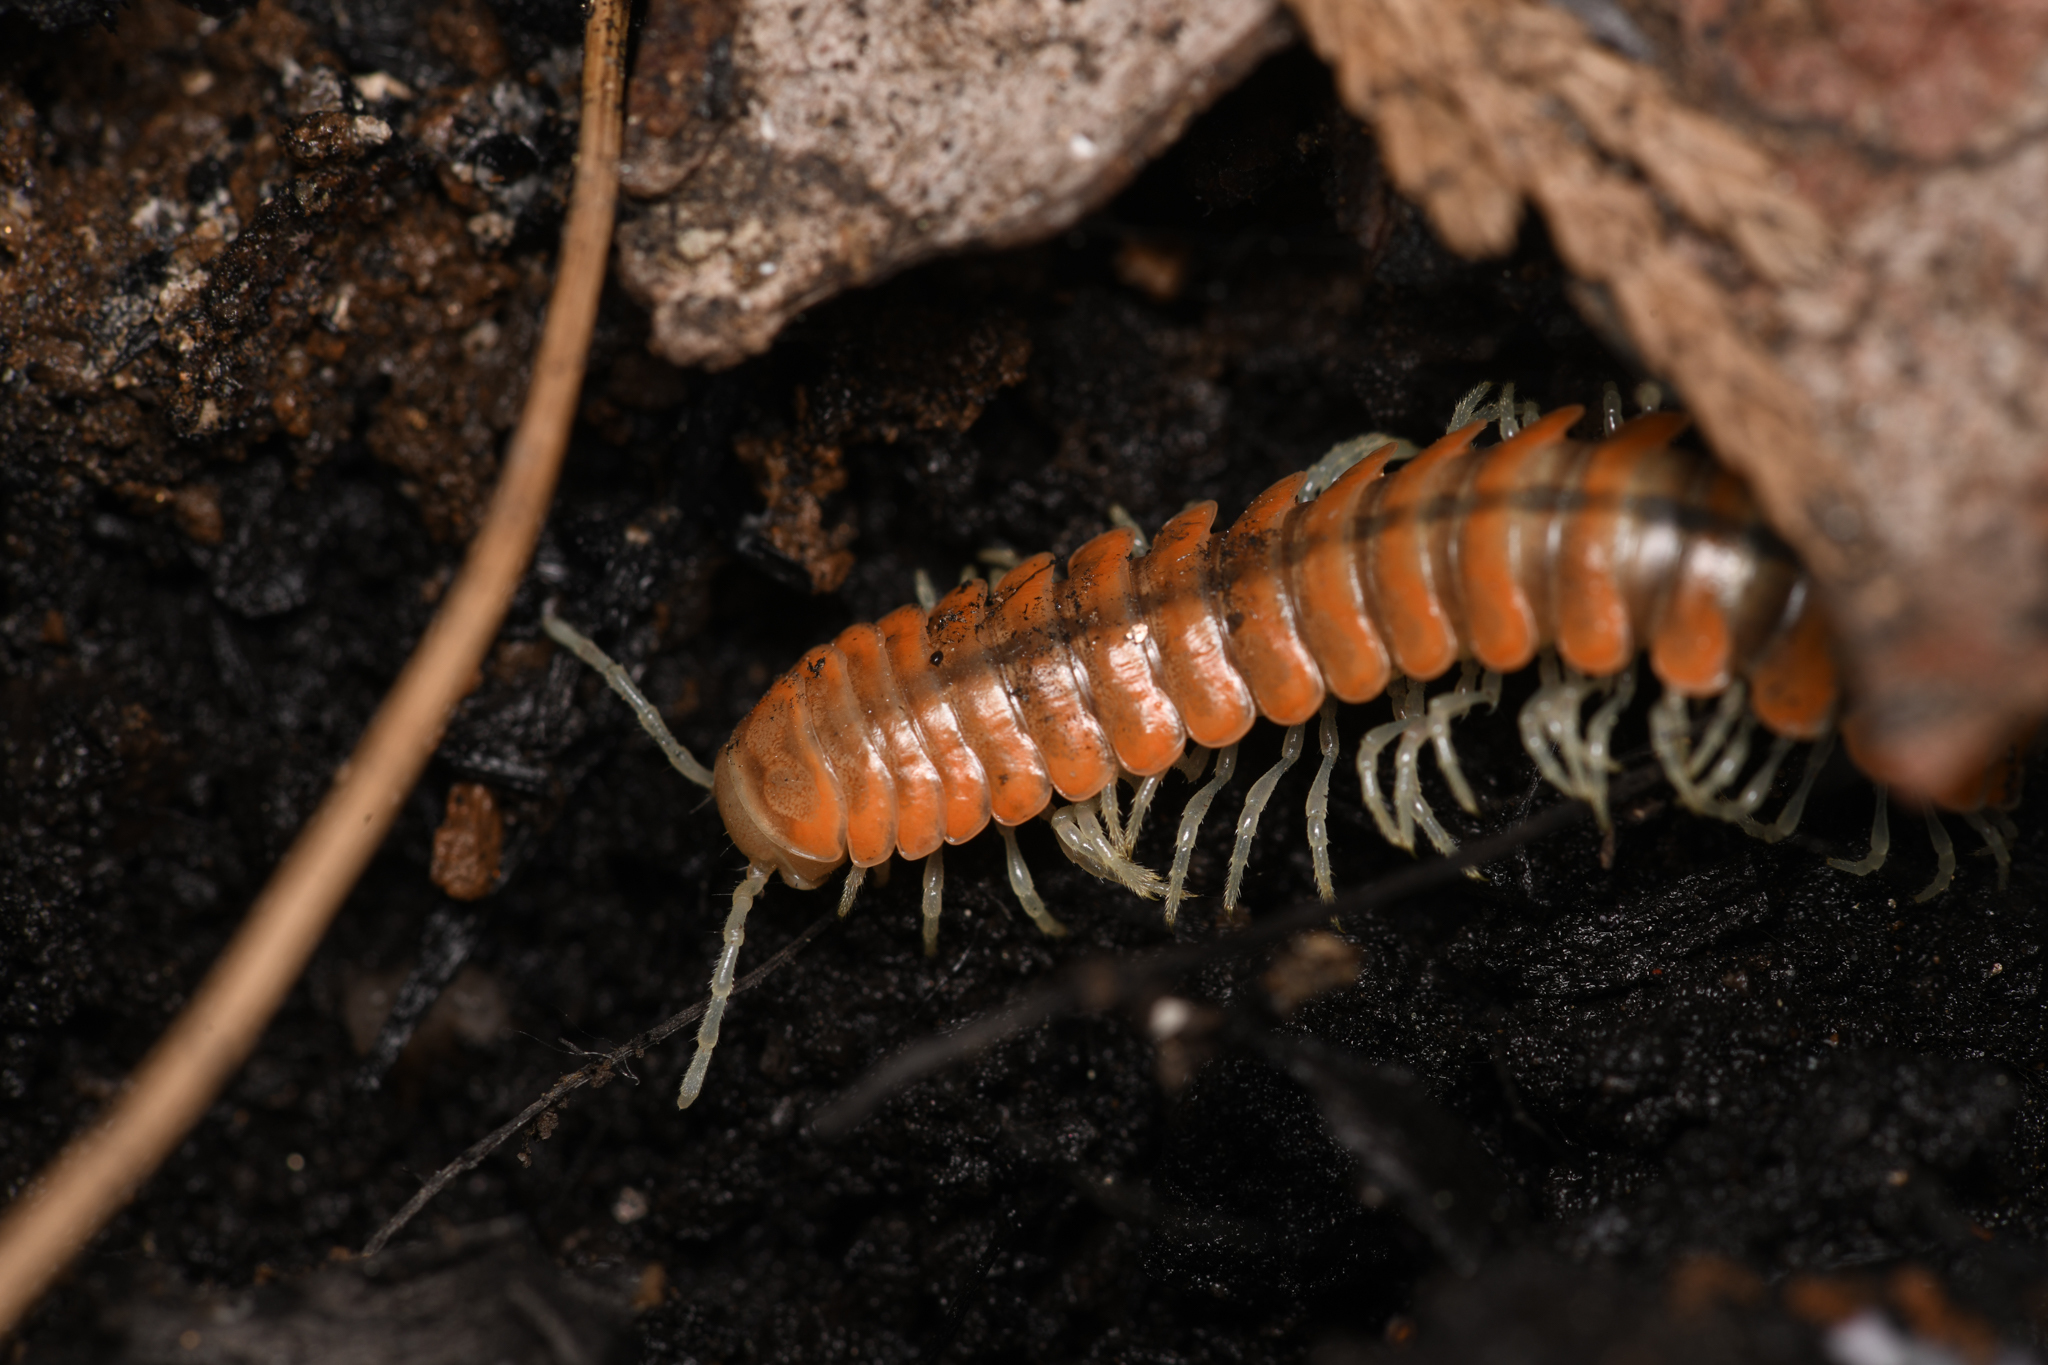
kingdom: Animalia
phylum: Arthropoda
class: Diplopoda
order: Polydesmida
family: Xystodesmidae
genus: Motyxia
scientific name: Motyxia tiemanni
